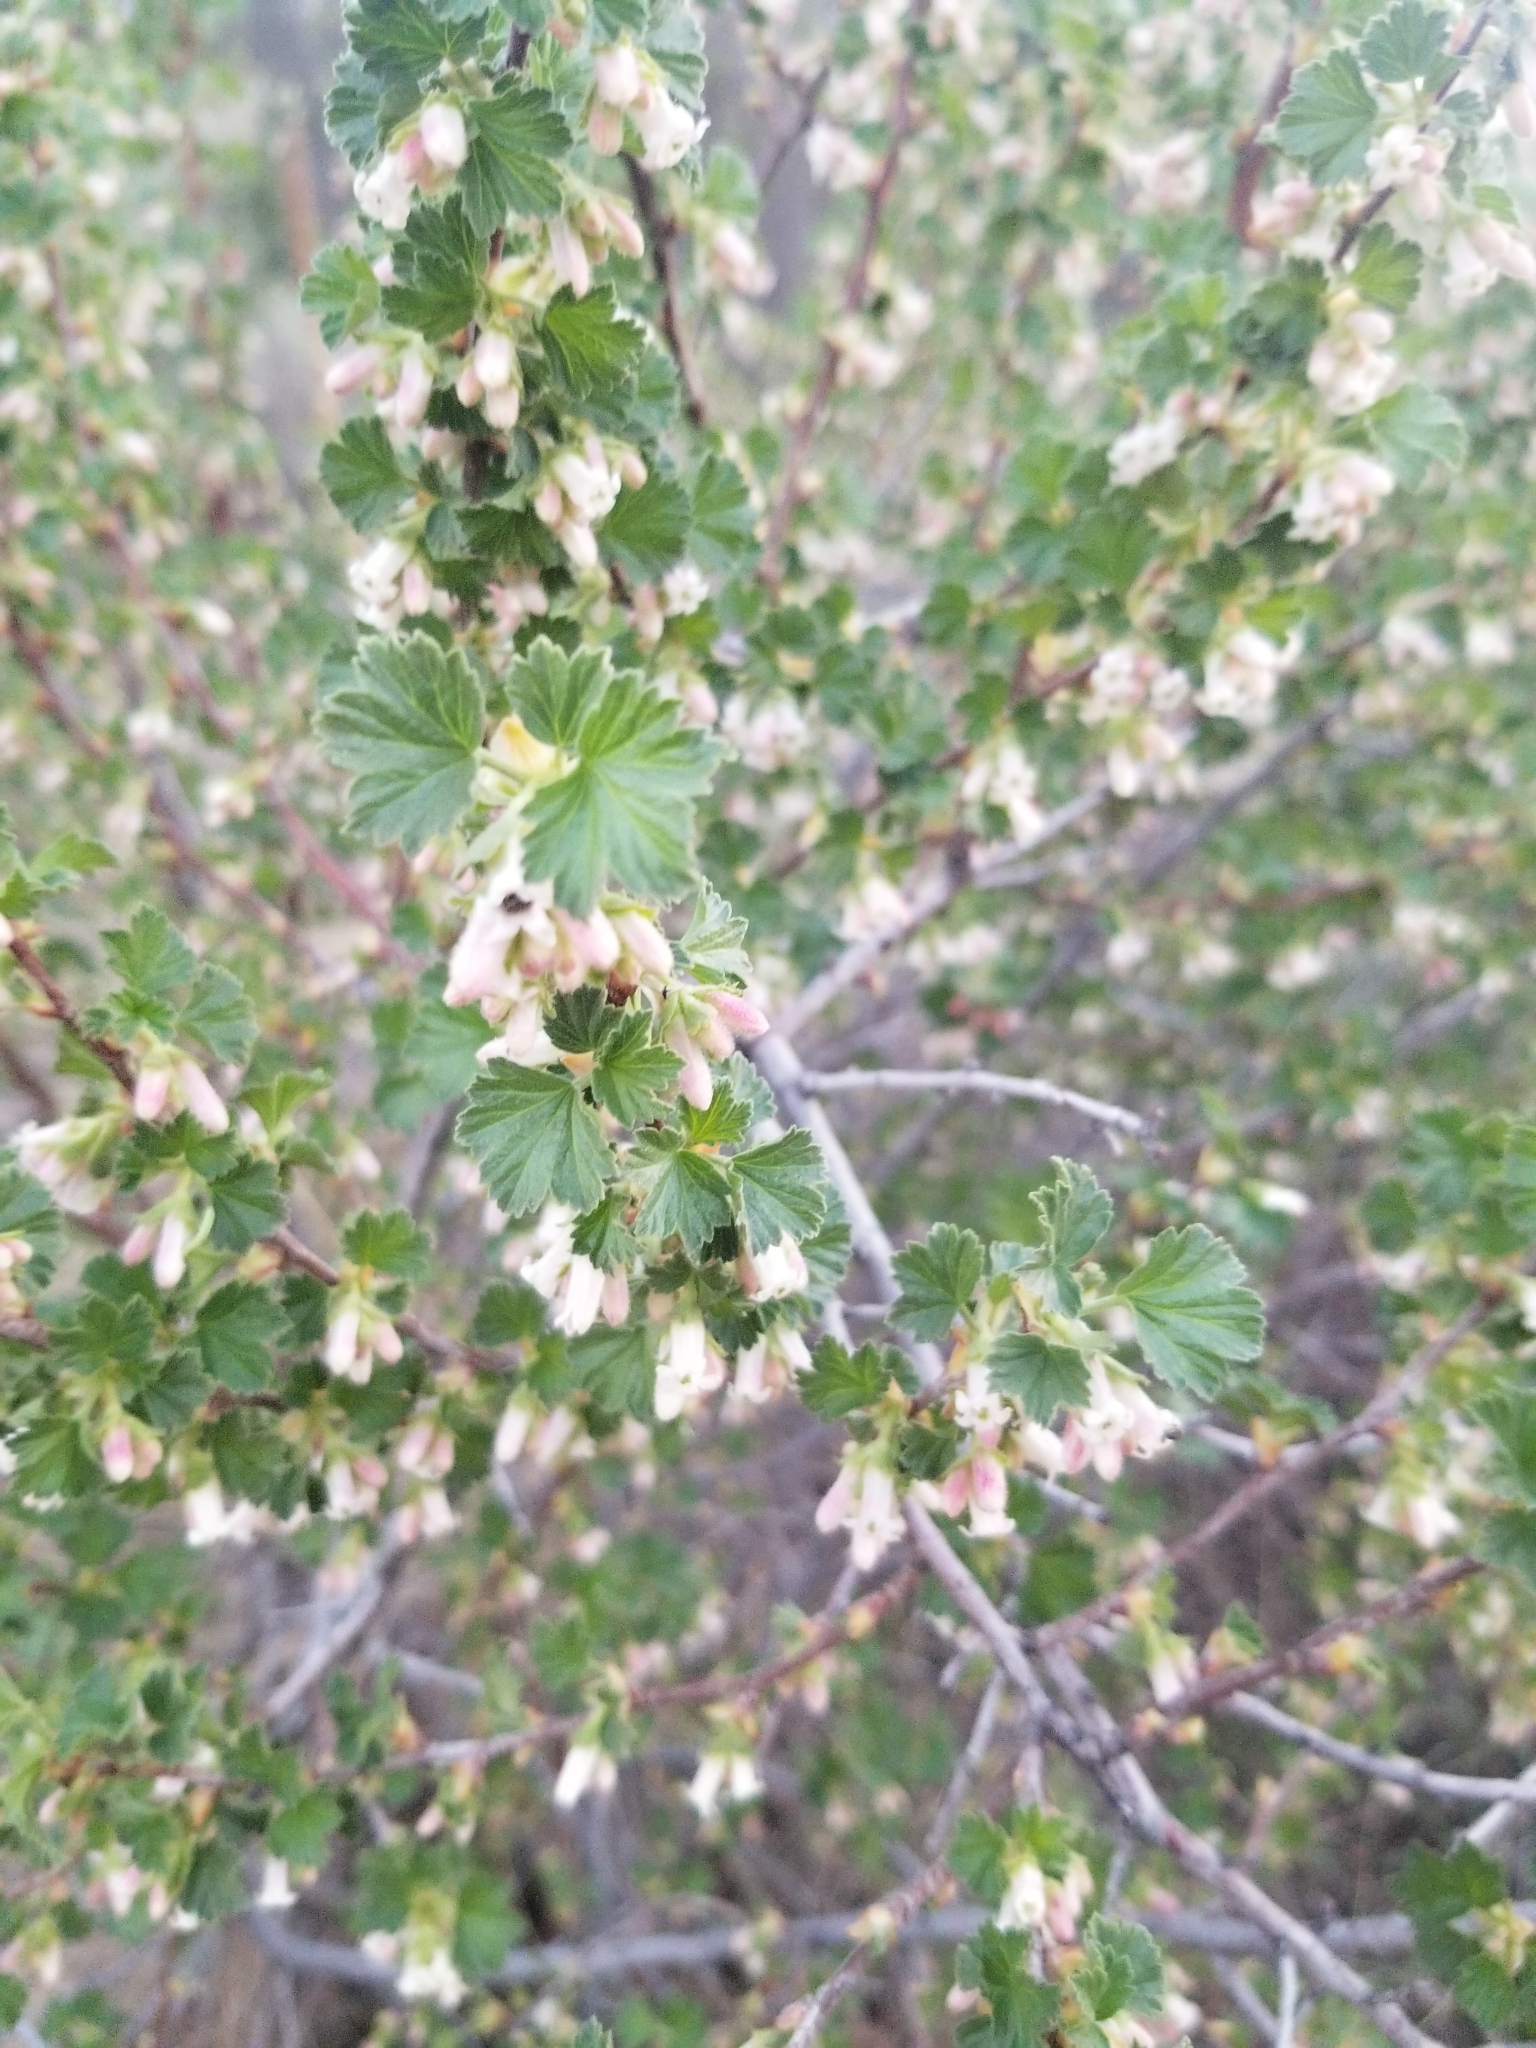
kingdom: Plantae
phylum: Tracheophyta
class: Magnoliopsida
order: Saxifragales
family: Grossulariaceae
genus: Ribes
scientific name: Ribes cereum
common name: Wax currant
